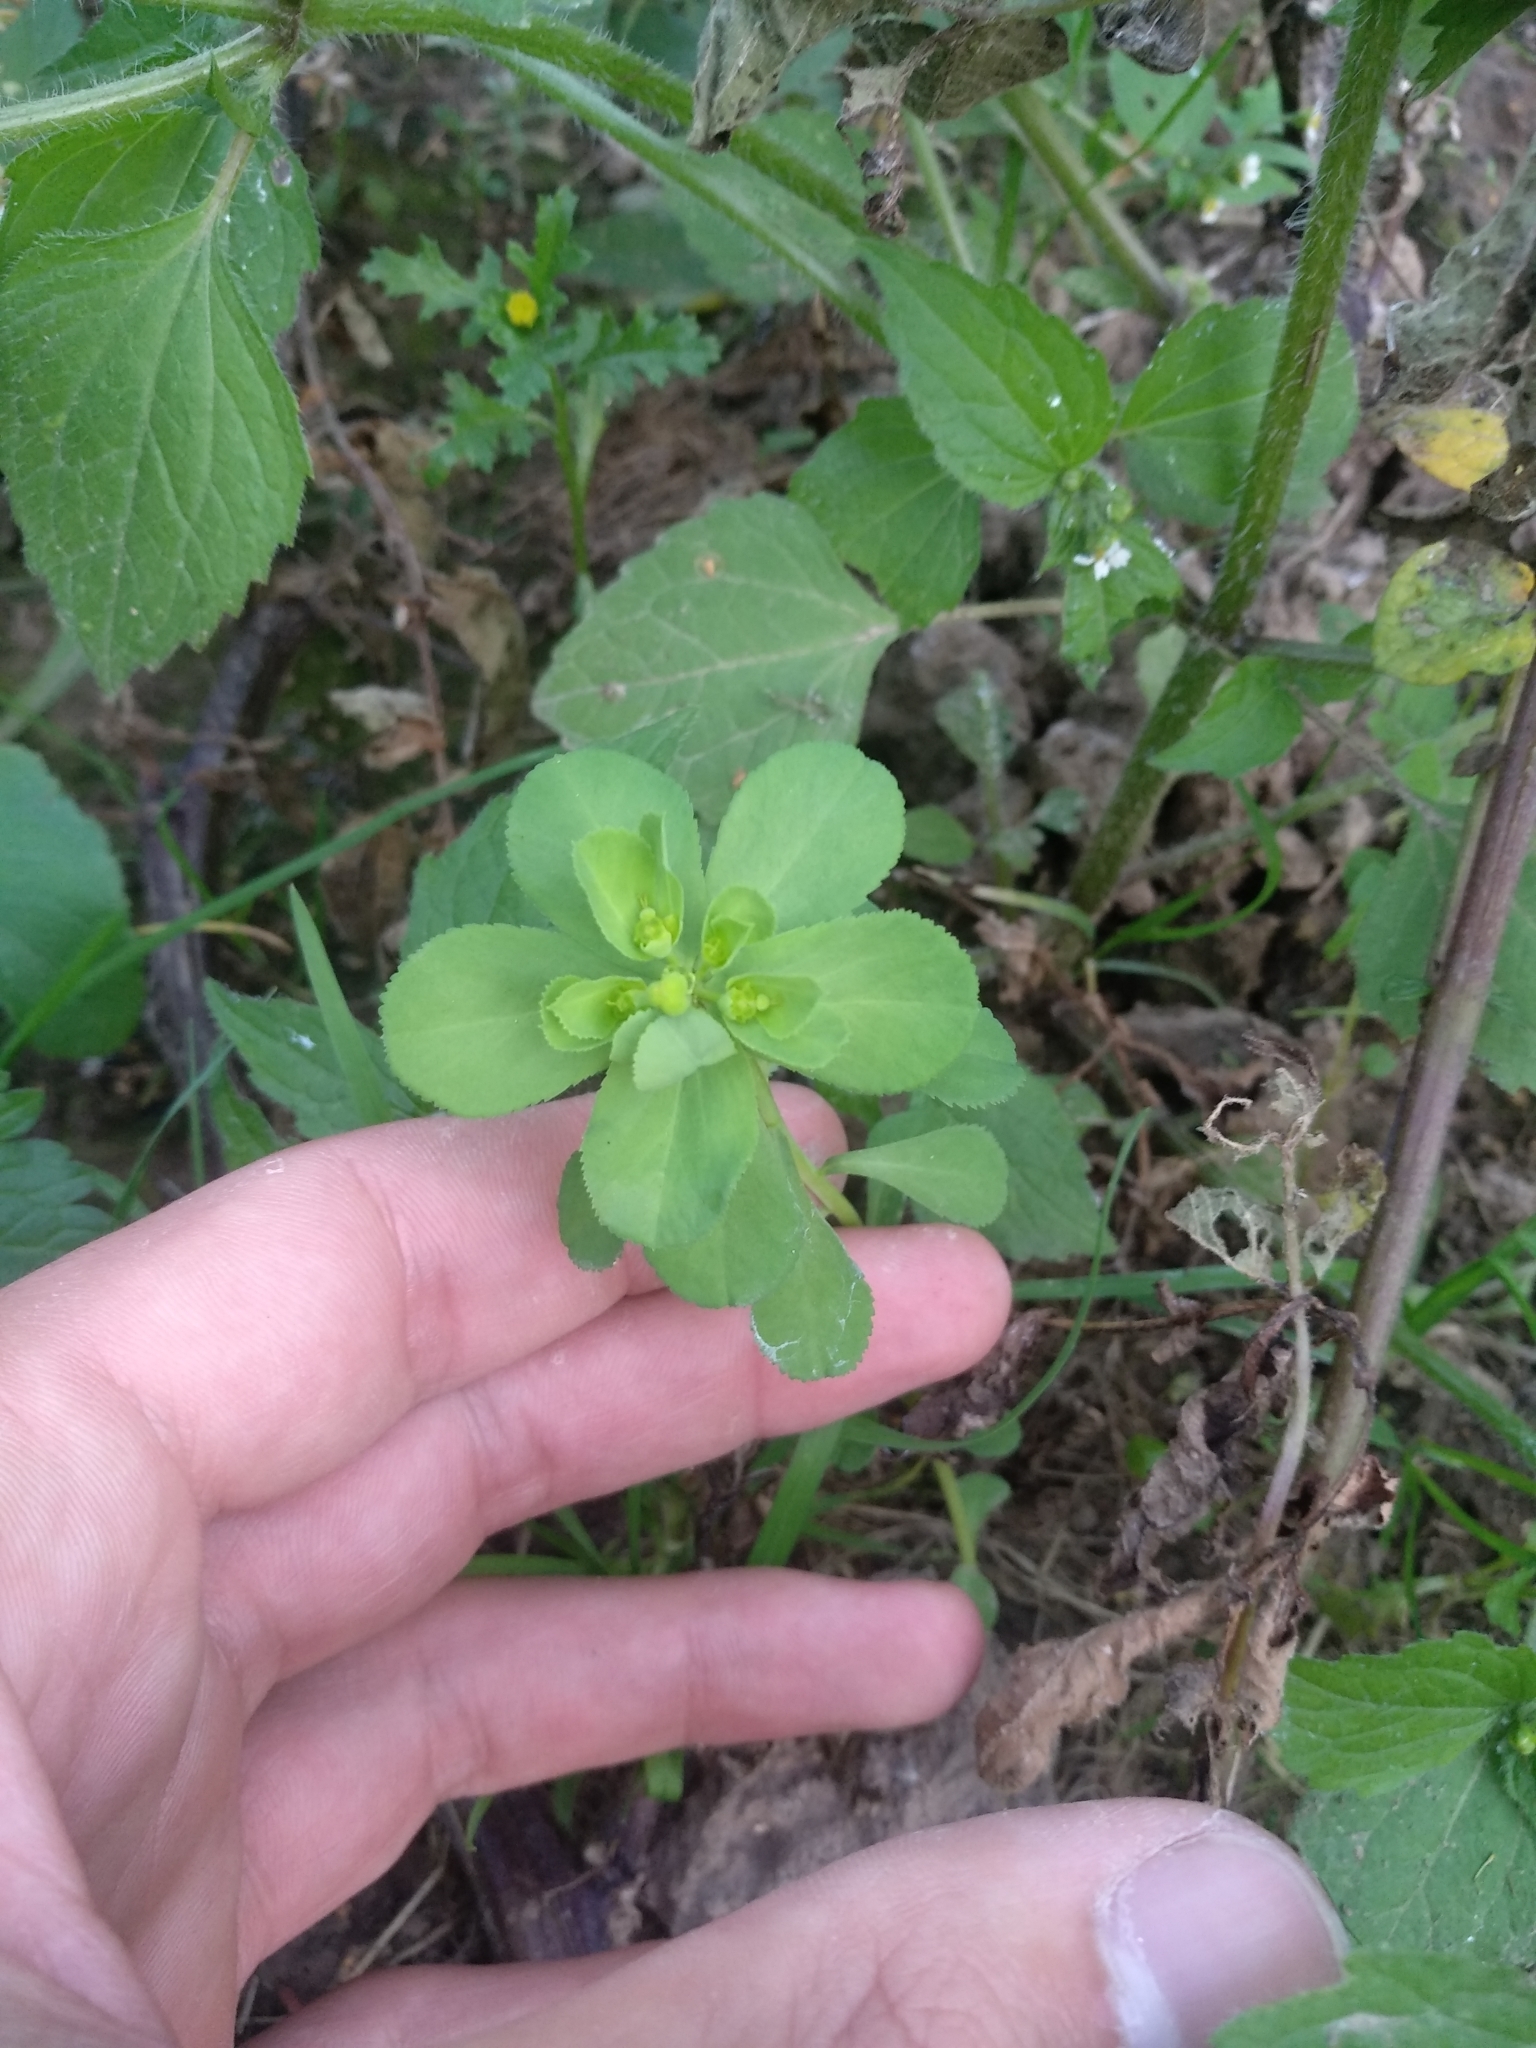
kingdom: Plantae
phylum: Tracheophyta
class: Magnoliopsida
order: Malpighiales
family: Euphorbiaceae
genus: Euphorbia
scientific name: Euphorbia helioscopia
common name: Sun spurge
